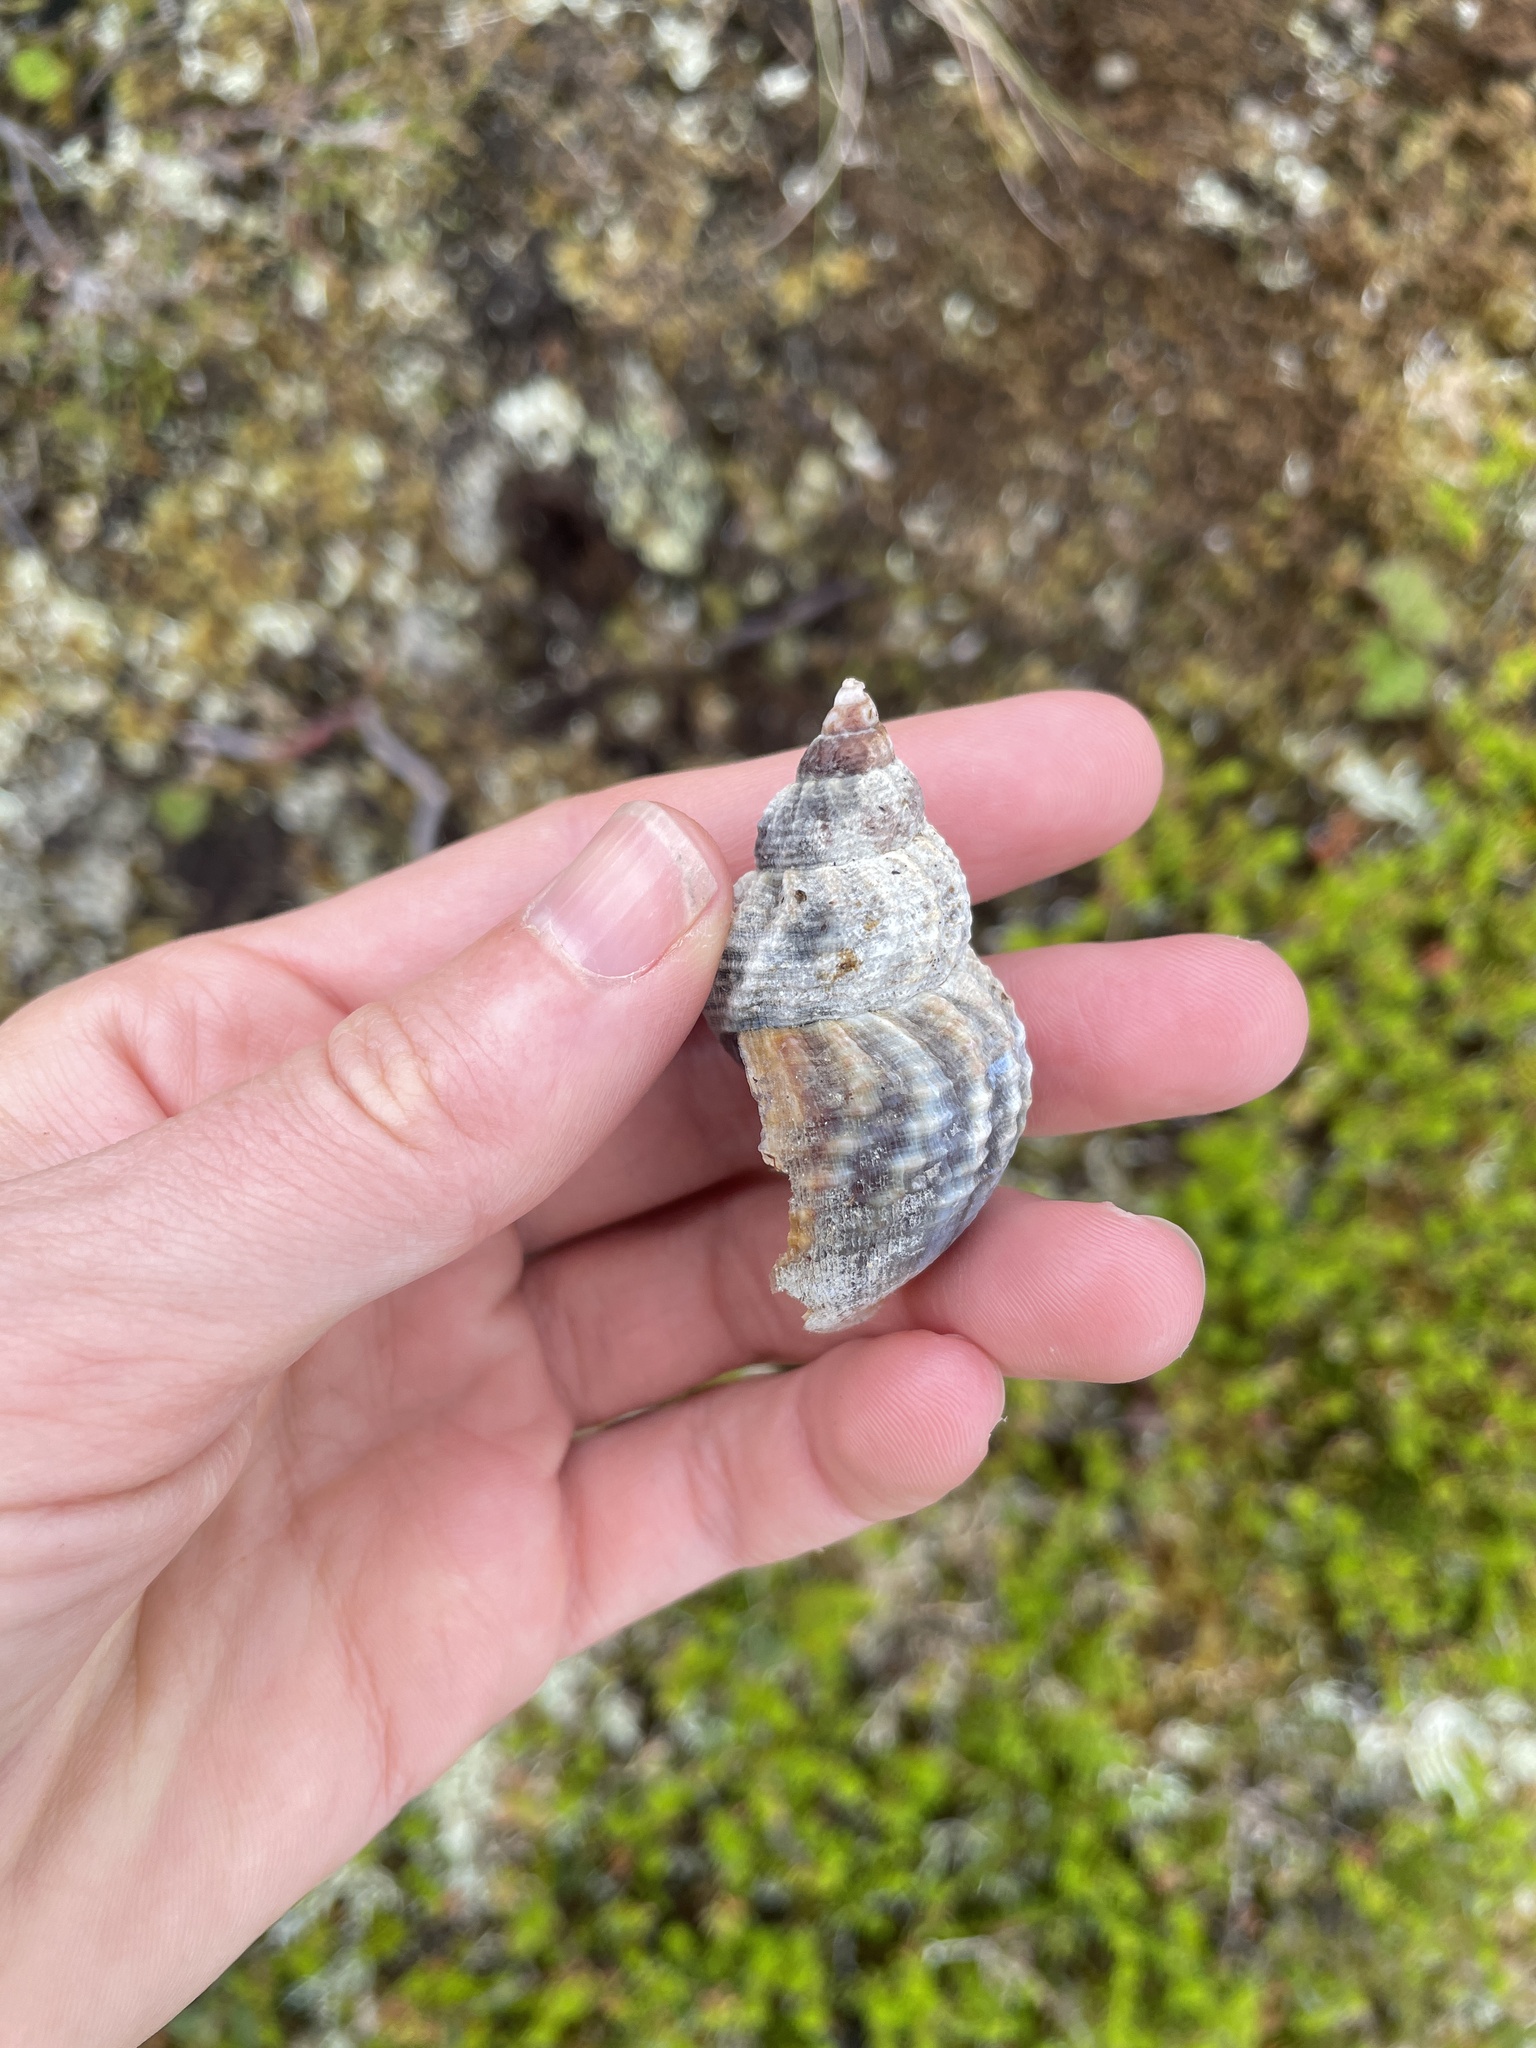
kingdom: Animalia
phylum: Mollusca
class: Gastropoda
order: Neogastropoda
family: Buccinidae
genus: Buccinum
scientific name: Buccinum undatum
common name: Common whelk
